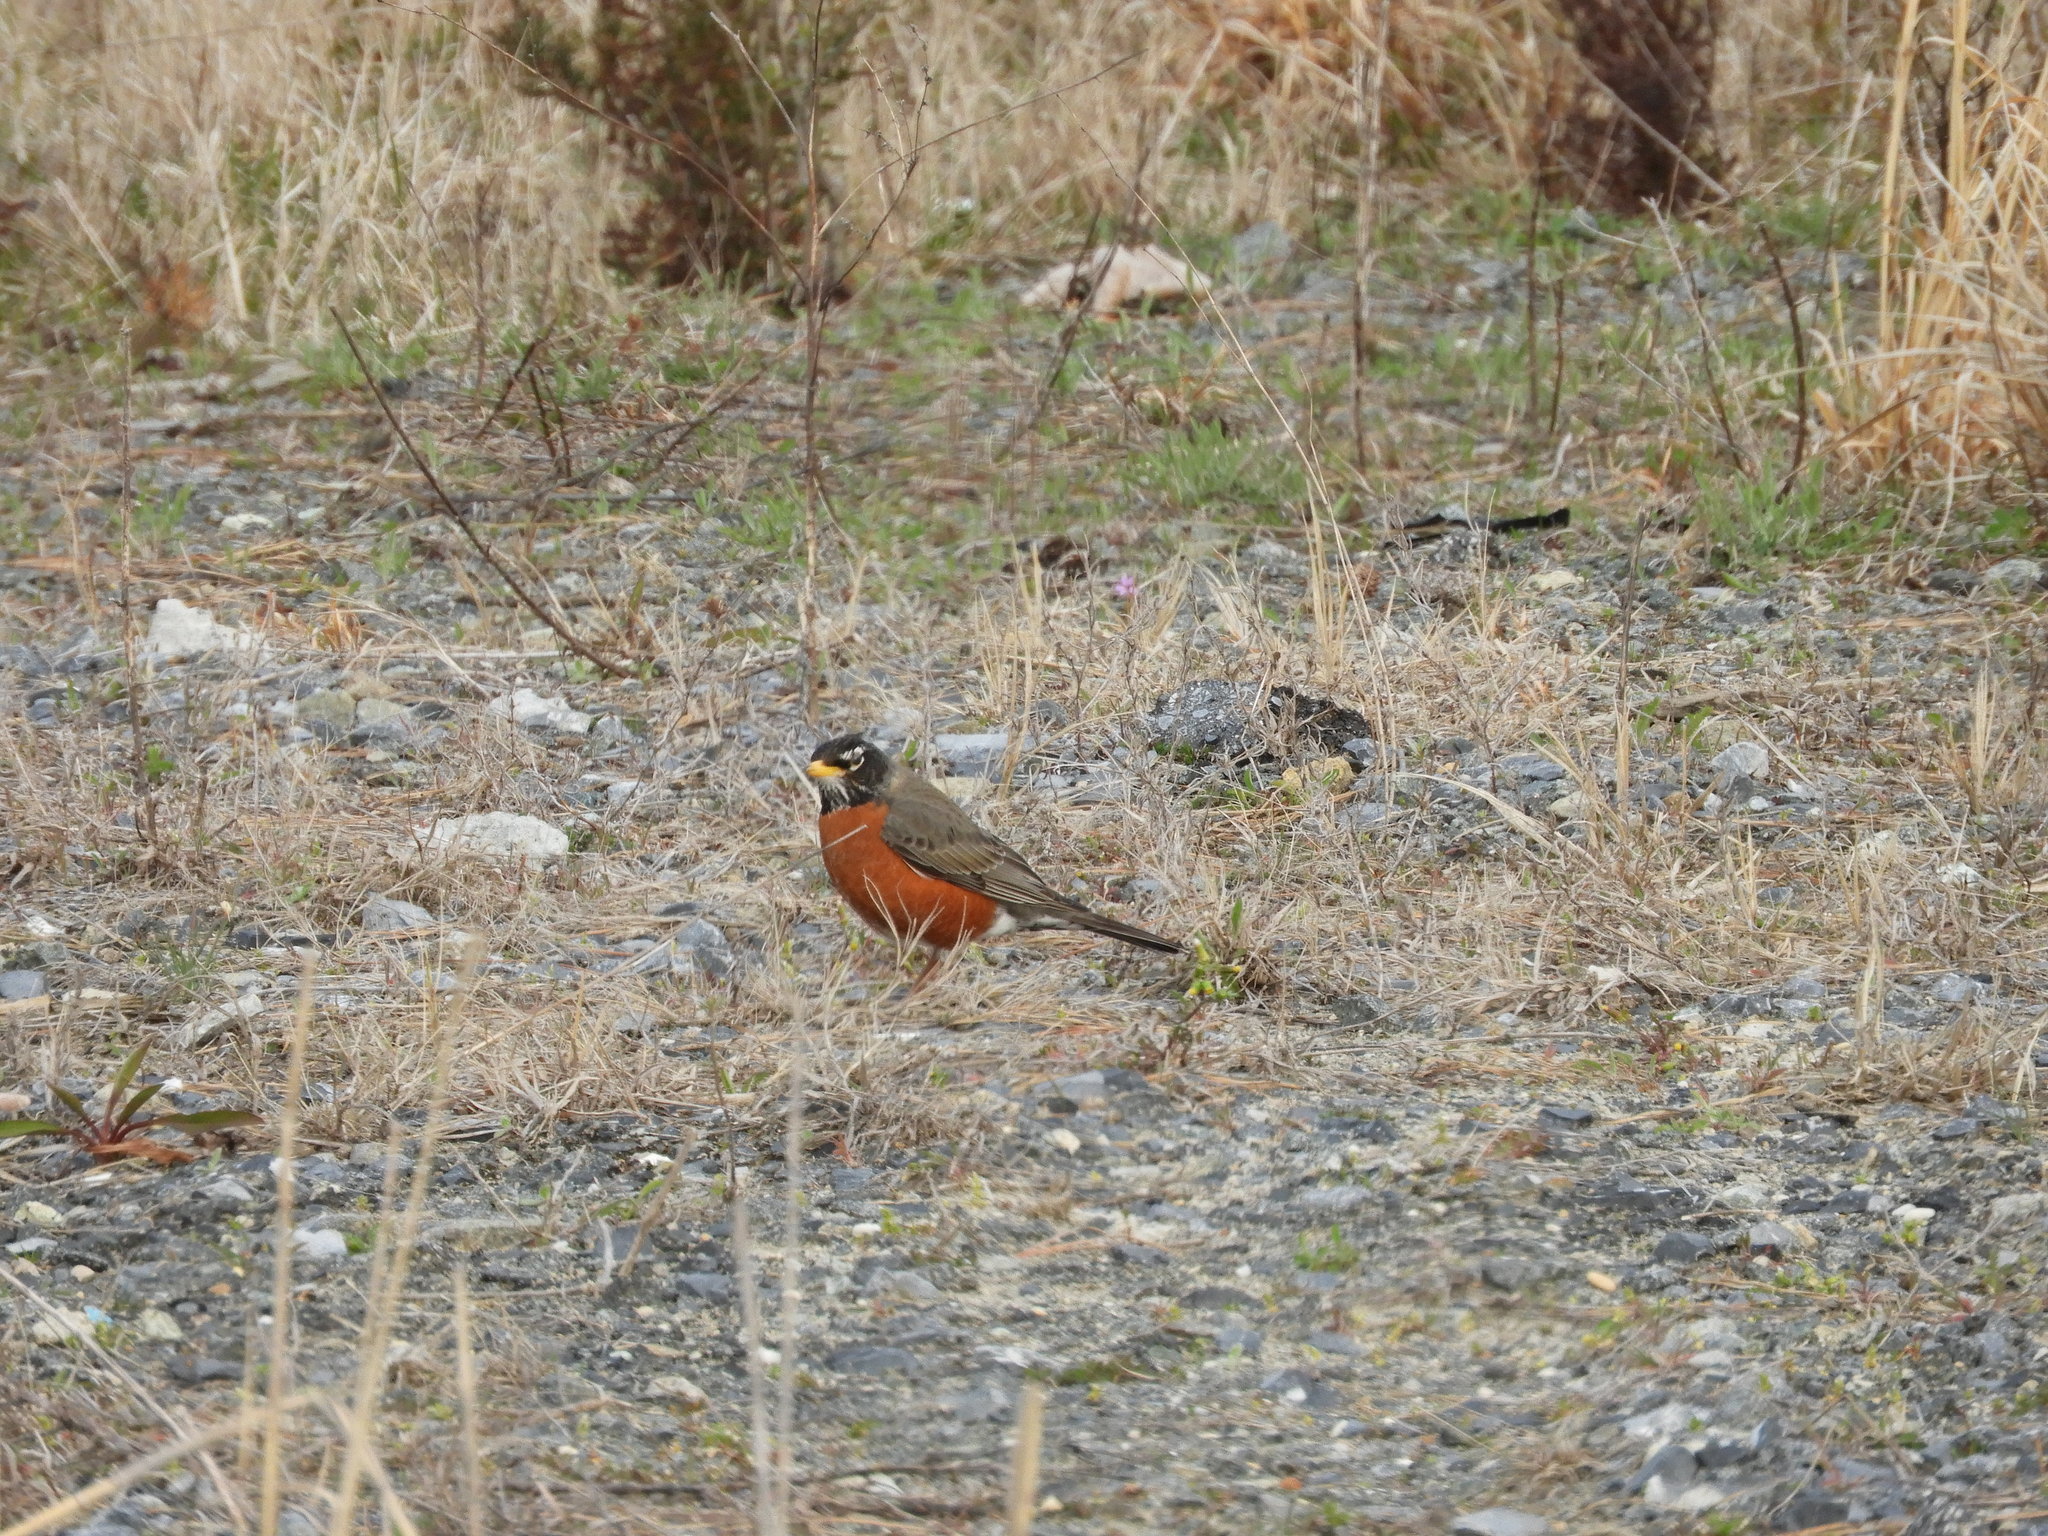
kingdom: Animalia
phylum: Chordata
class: Aves
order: Passeriformes
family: Turdidae
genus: Turdus
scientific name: Turdus migratorius
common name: American robin
